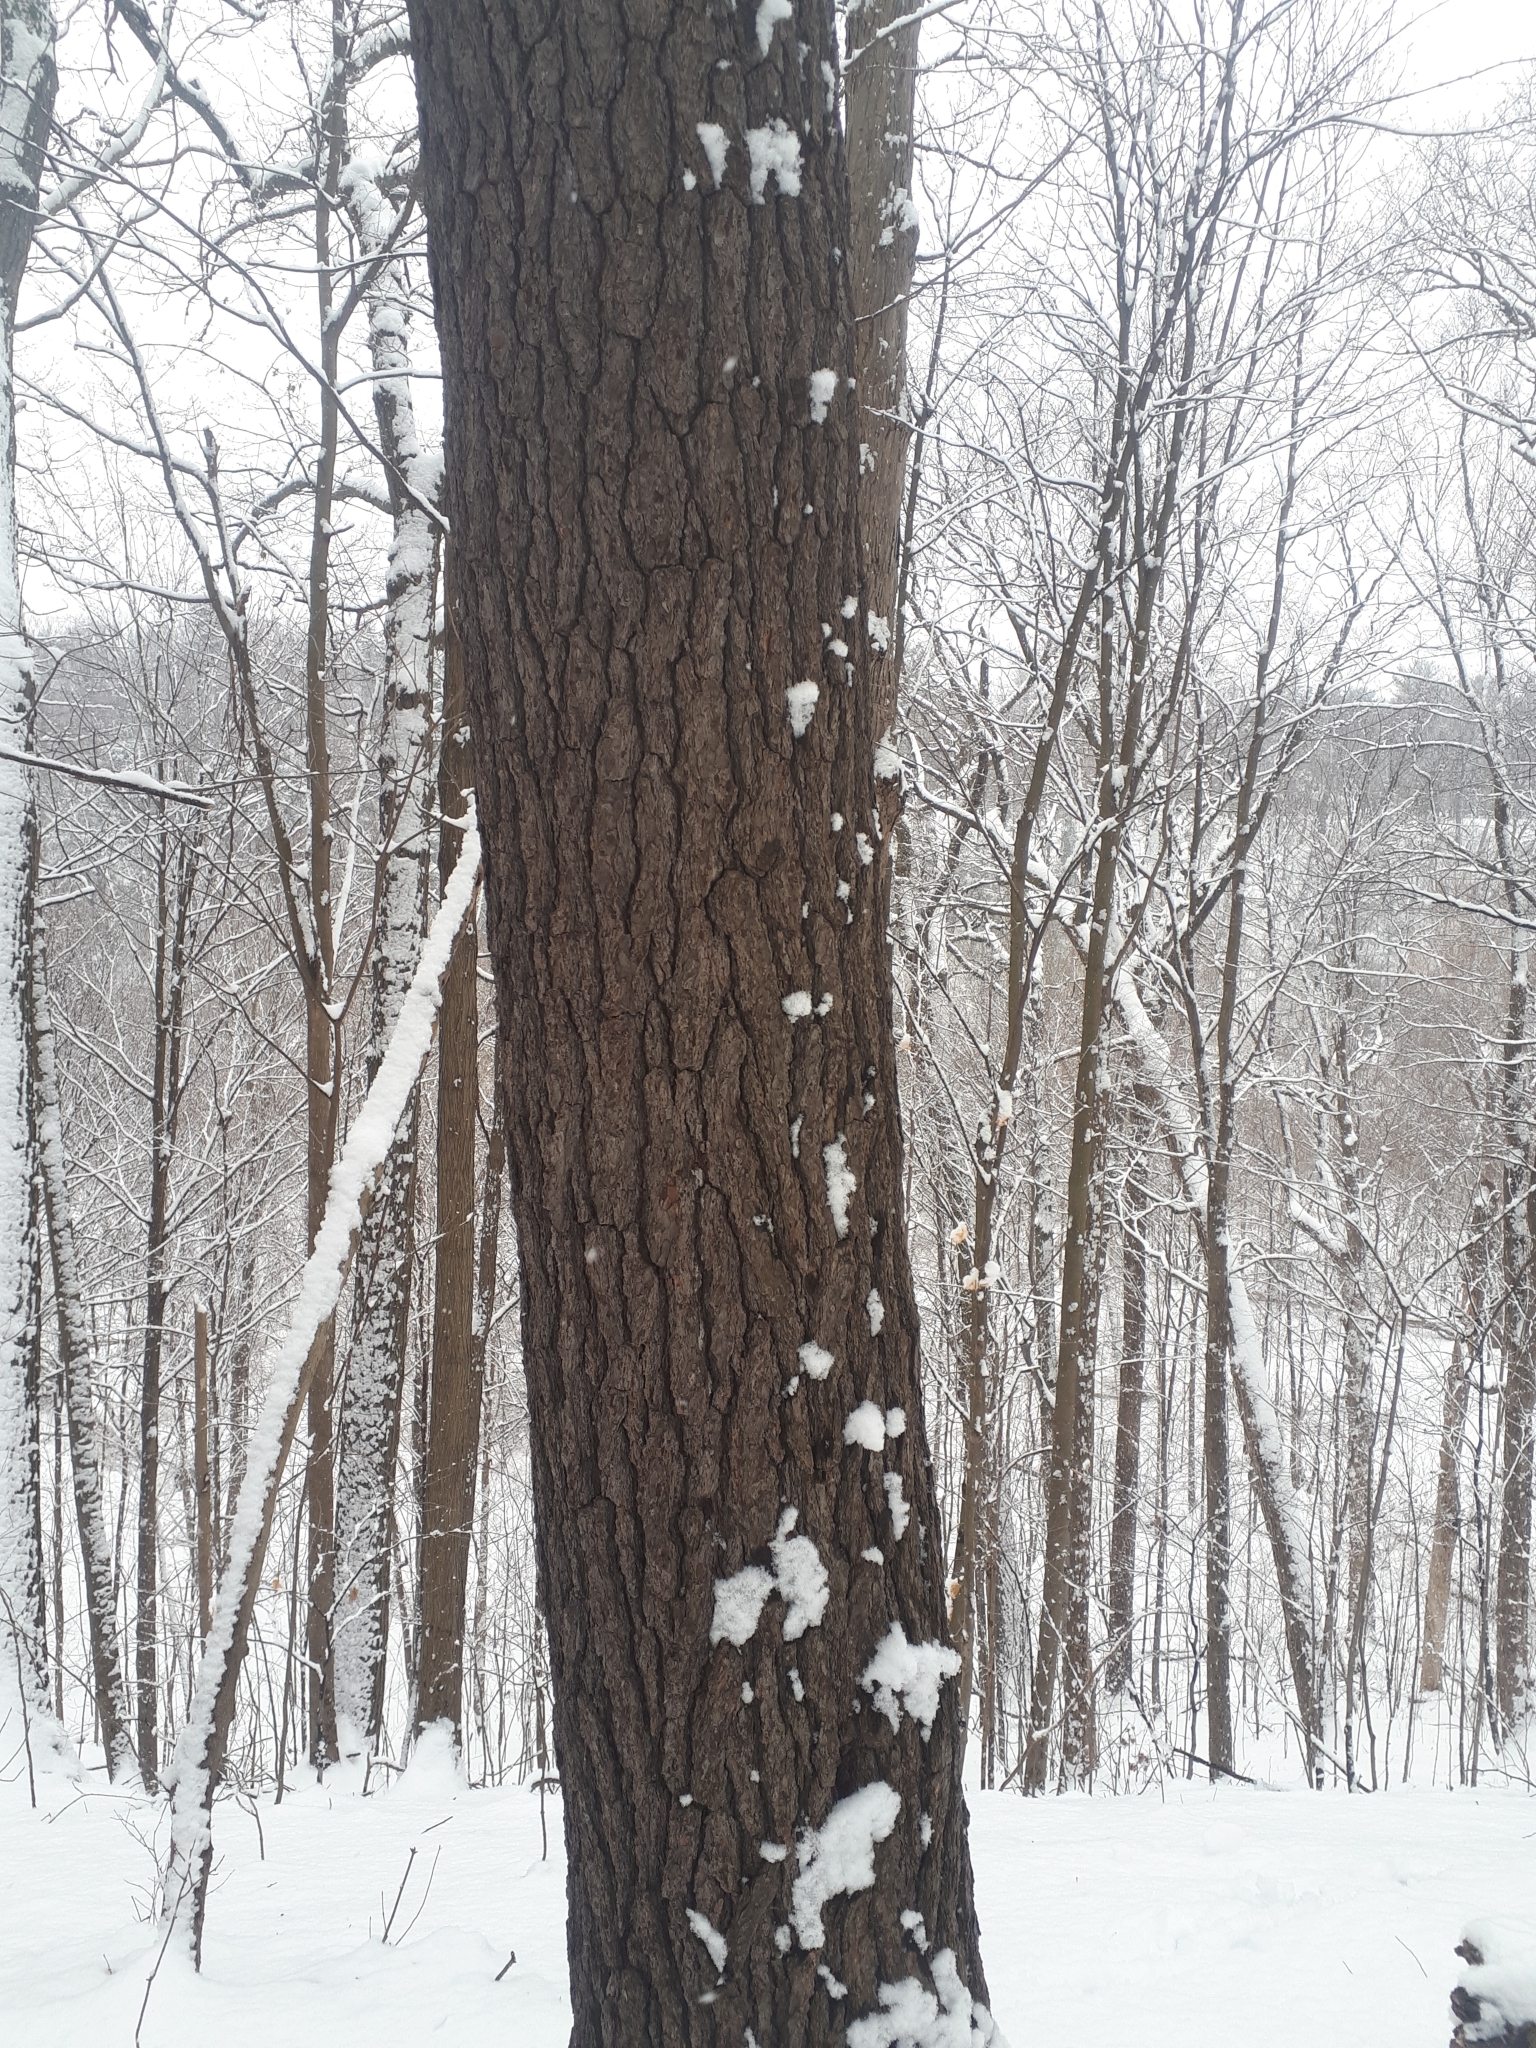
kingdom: Plantae
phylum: Tracheophyta
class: Pinopsida
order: Pinales
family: Pinaceae
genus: Pinus
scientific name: Pinus strobus
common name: Weymouth pine
